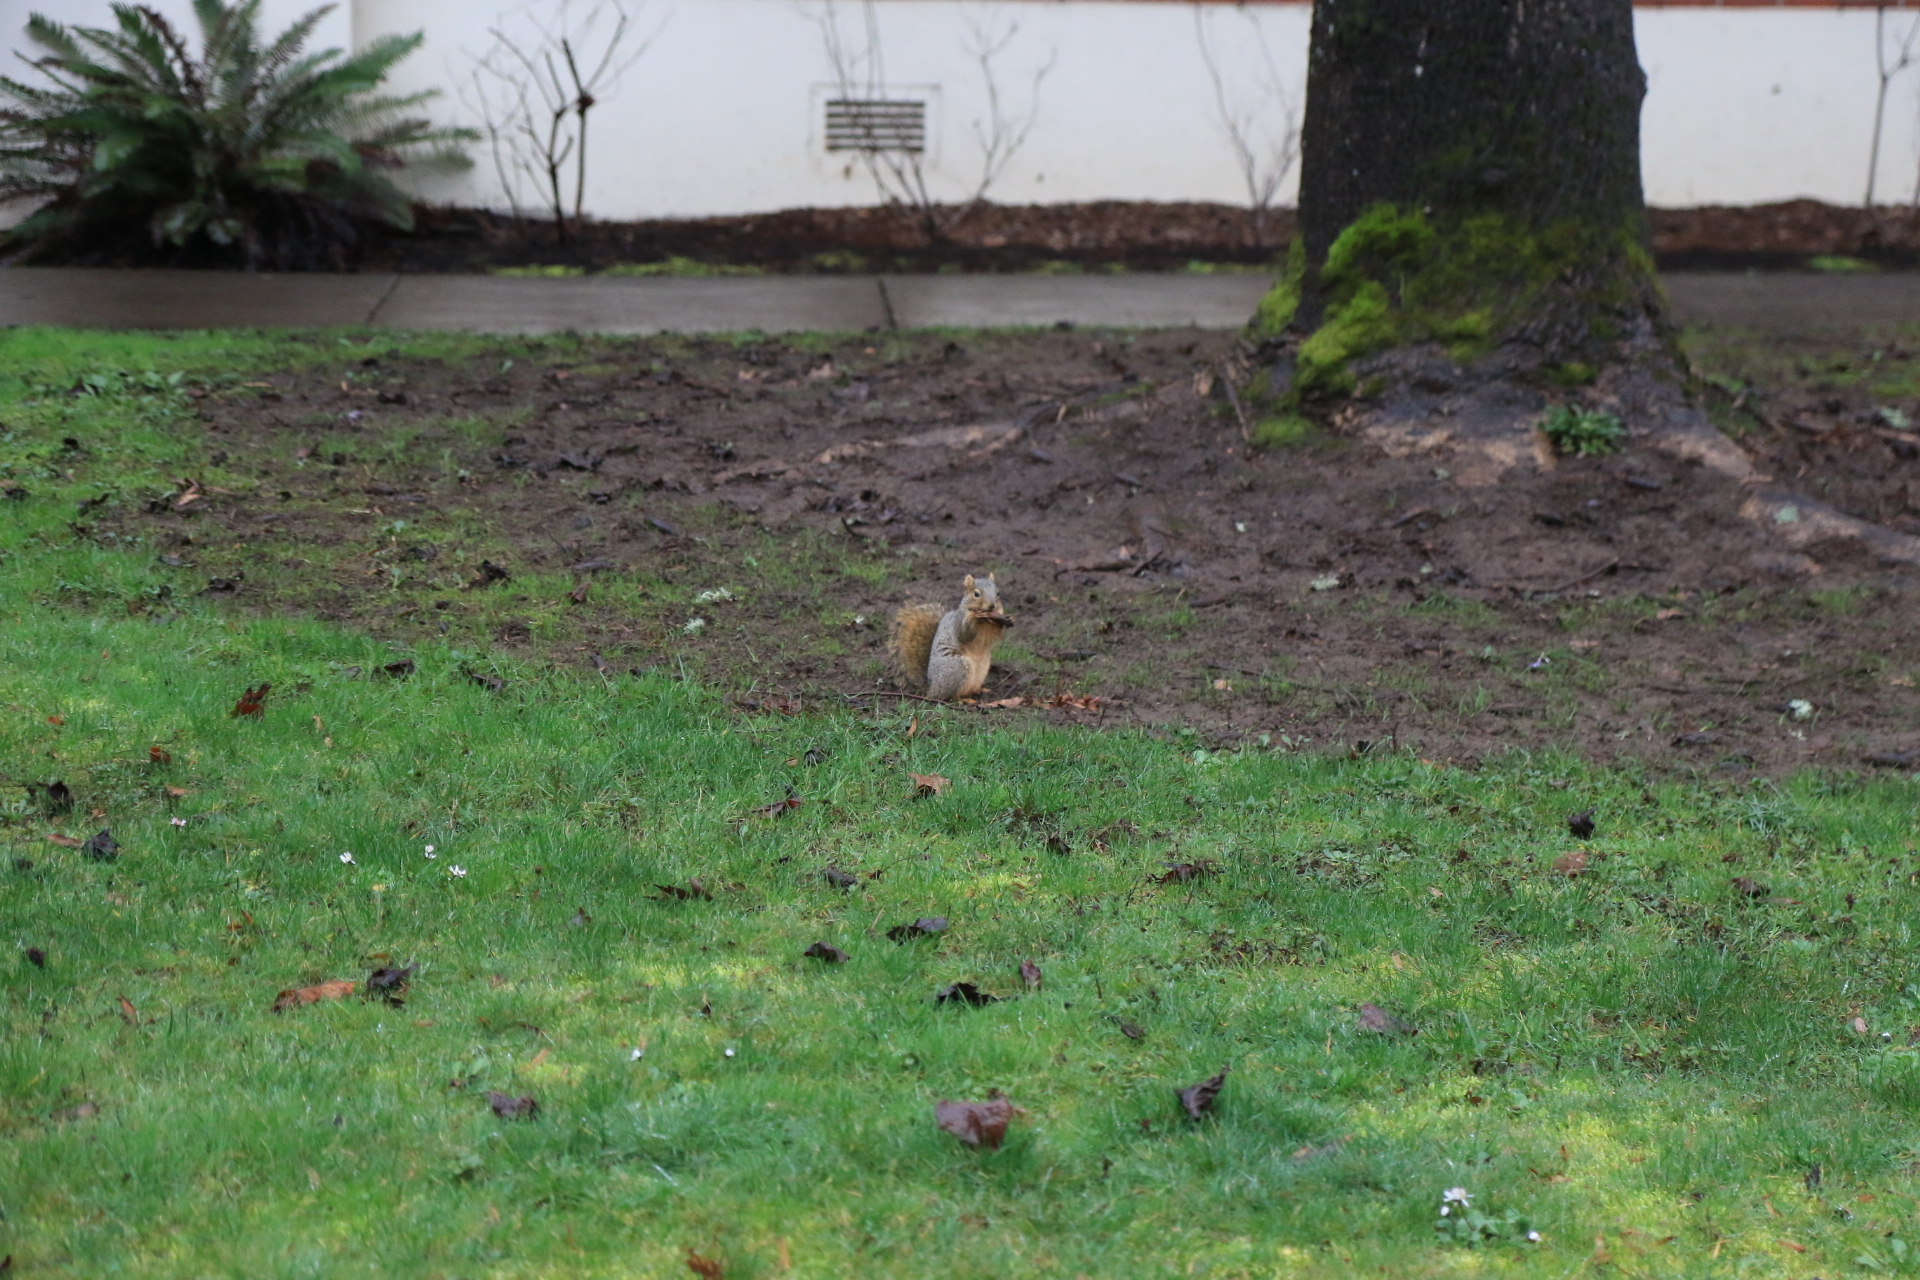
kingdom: Animalia
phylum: Chordata
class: Mammalia
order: Rodentia
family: Sciuridae
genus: Sciurus
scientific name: Sciurus niger
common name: Fox squirrel
